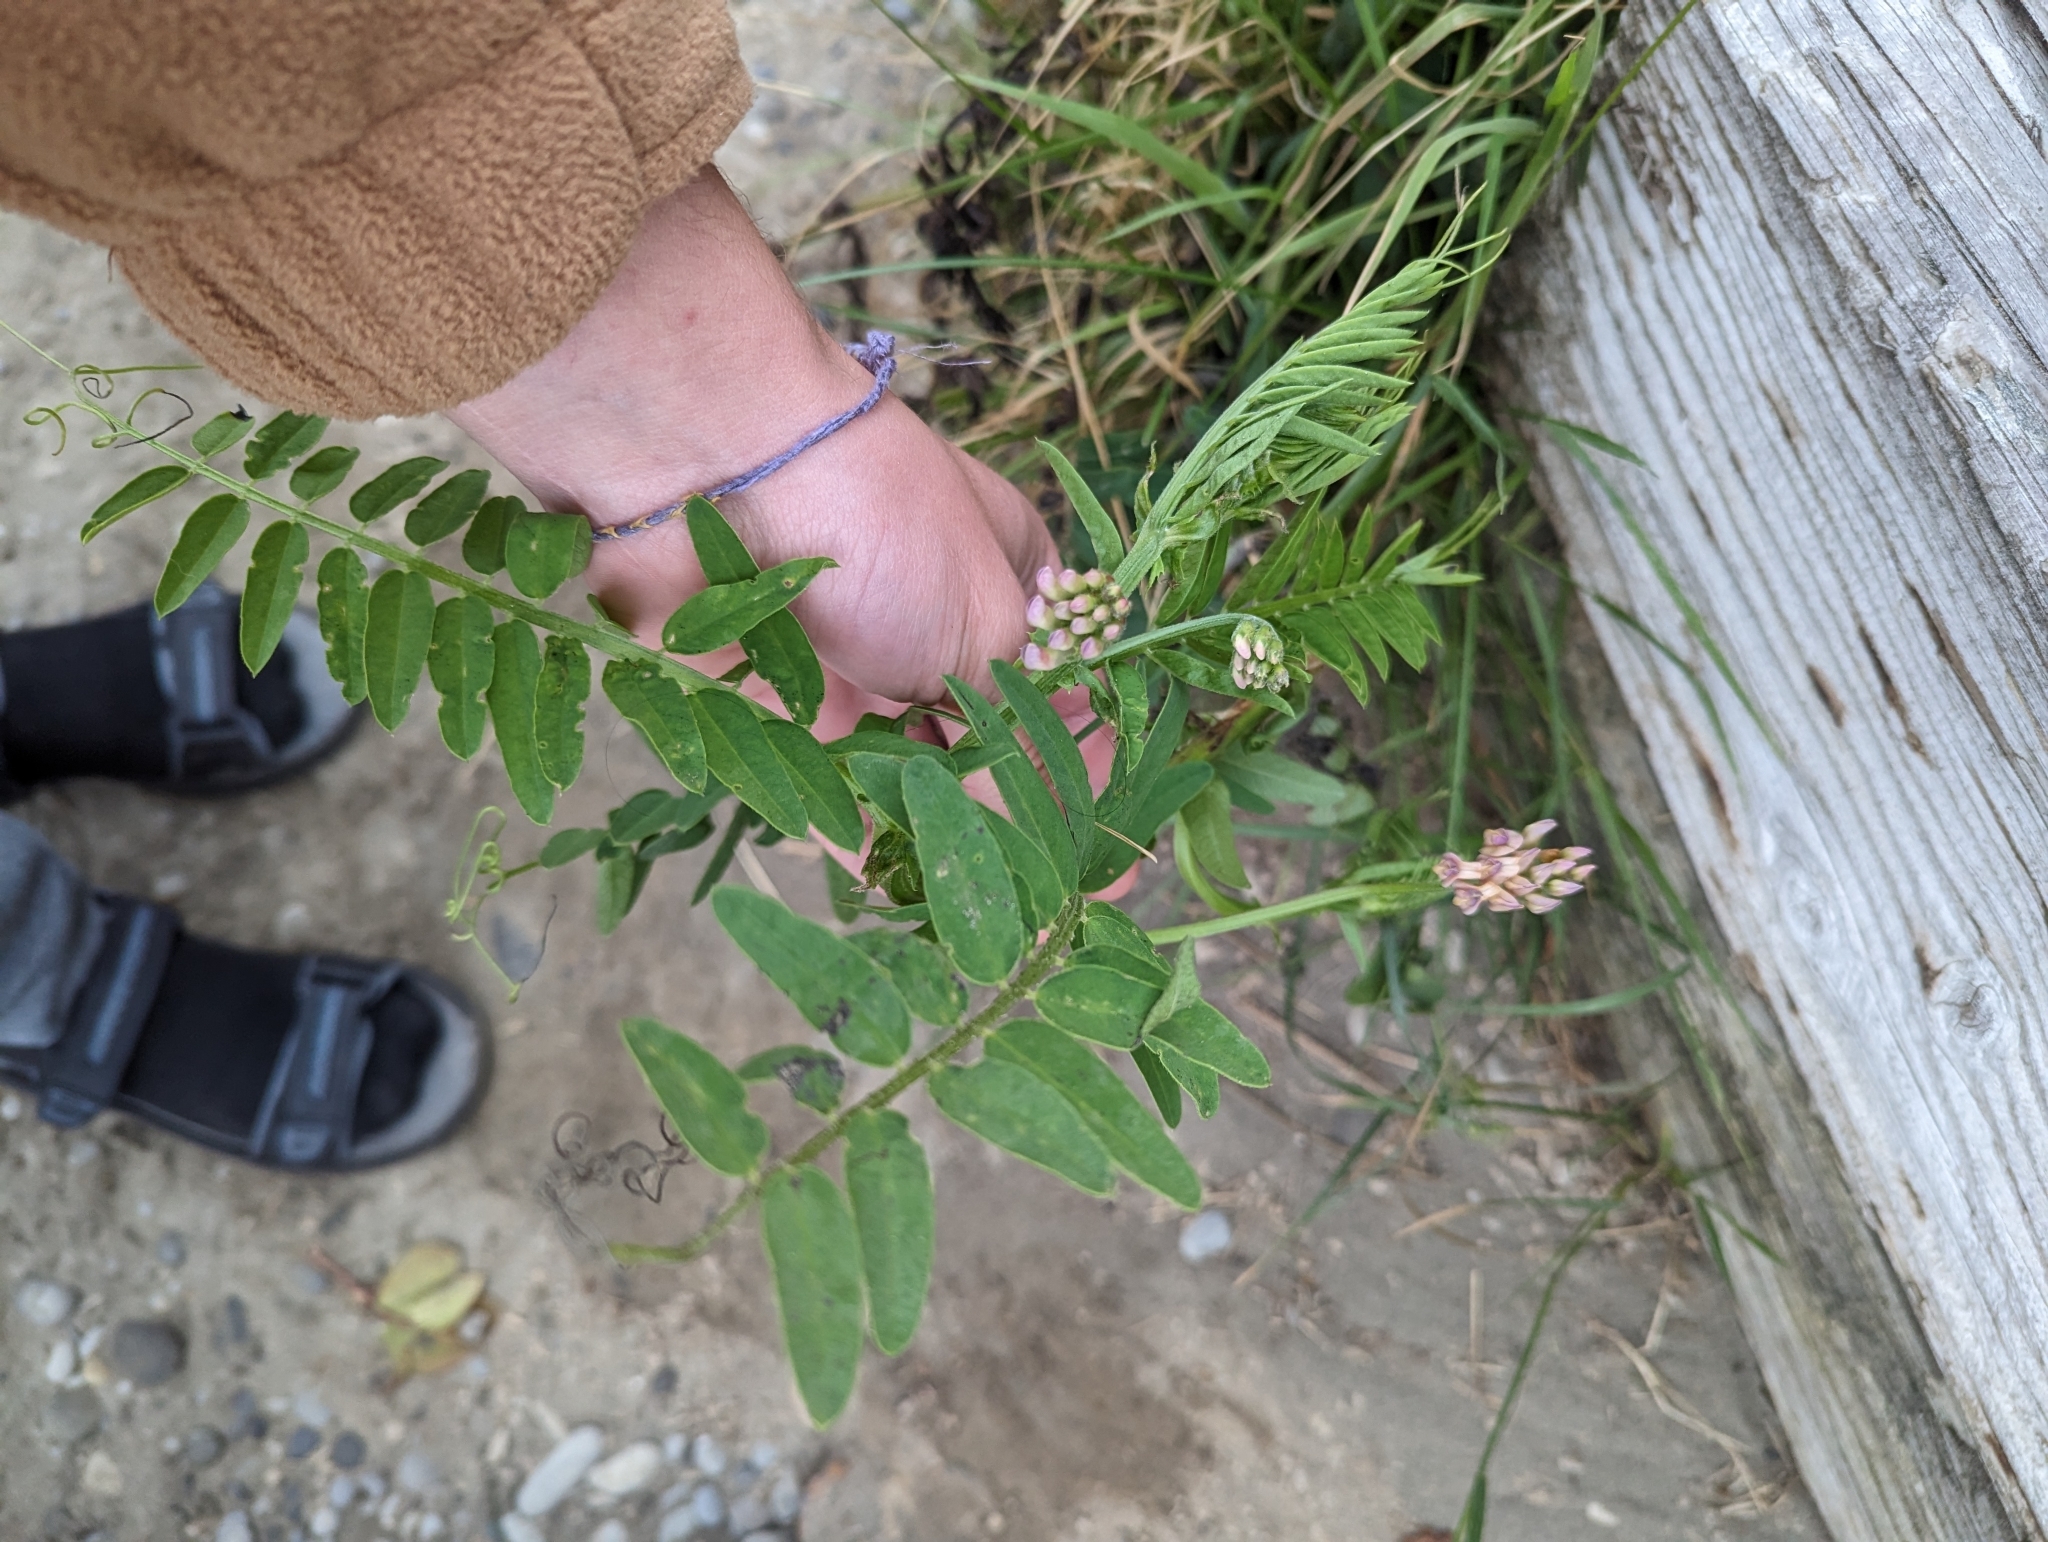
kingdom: Plantae
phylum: Tracheophyta
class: Magnoliopsida
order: Fabales
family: Fabaceae
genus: Vicia
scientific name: Vicia
